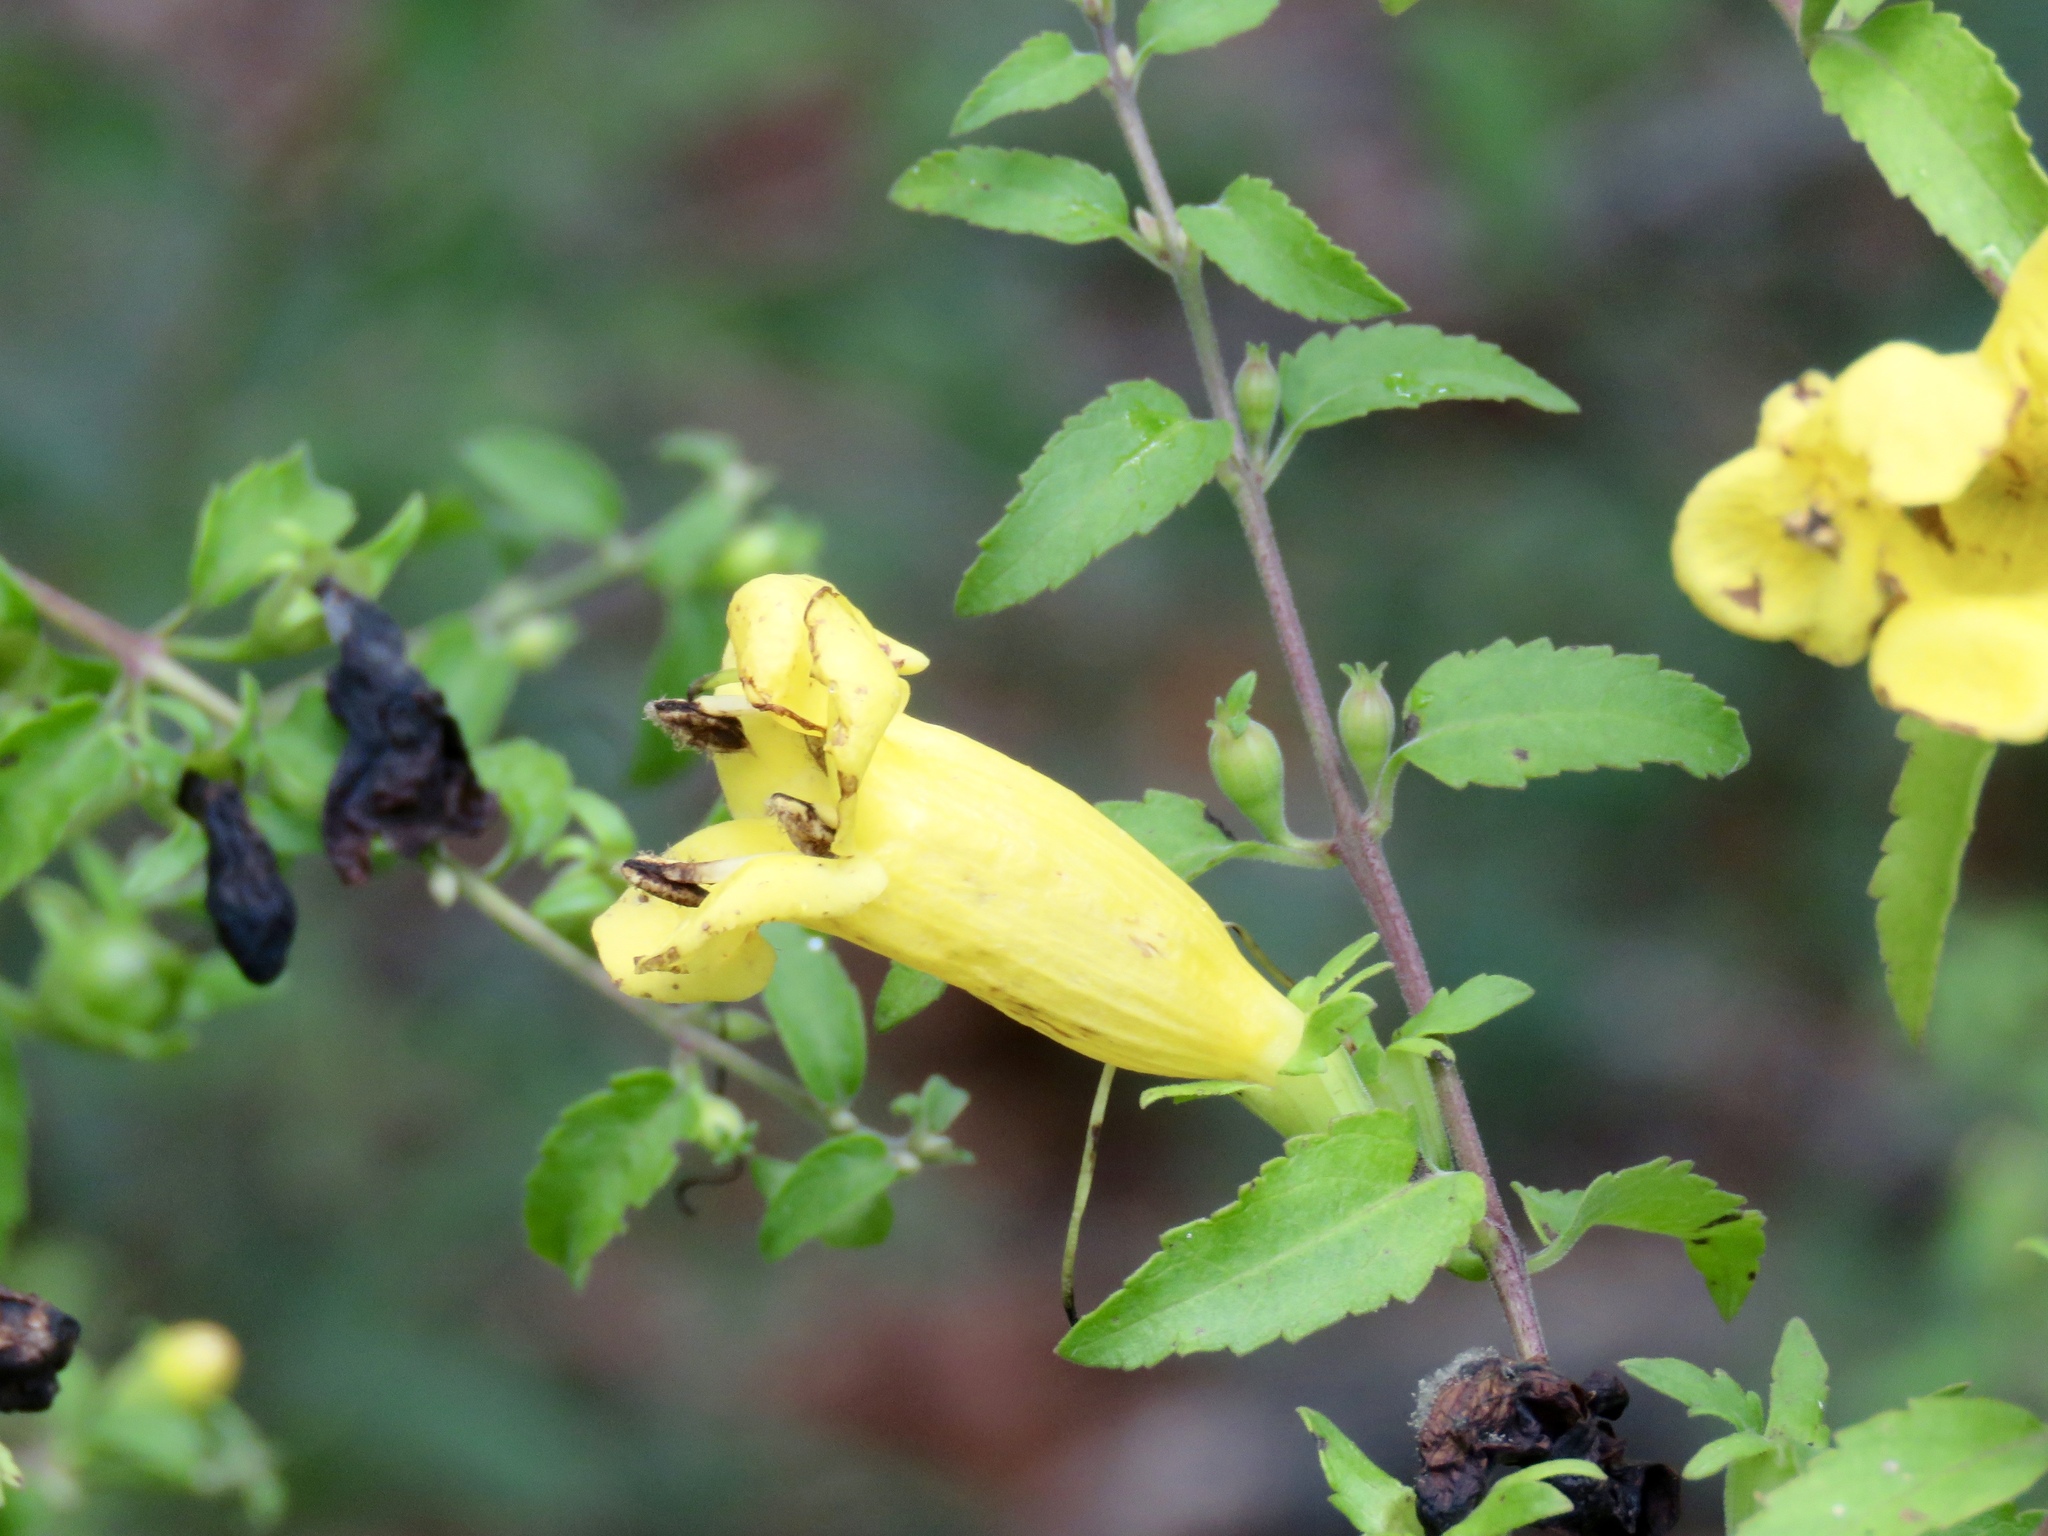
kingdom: Plantae
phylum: Tracheophyta
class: Magnoliopsida
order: Lamiales
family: Orobanchaceae
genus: Aureolaria
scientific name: Aureolaria grandiflora
